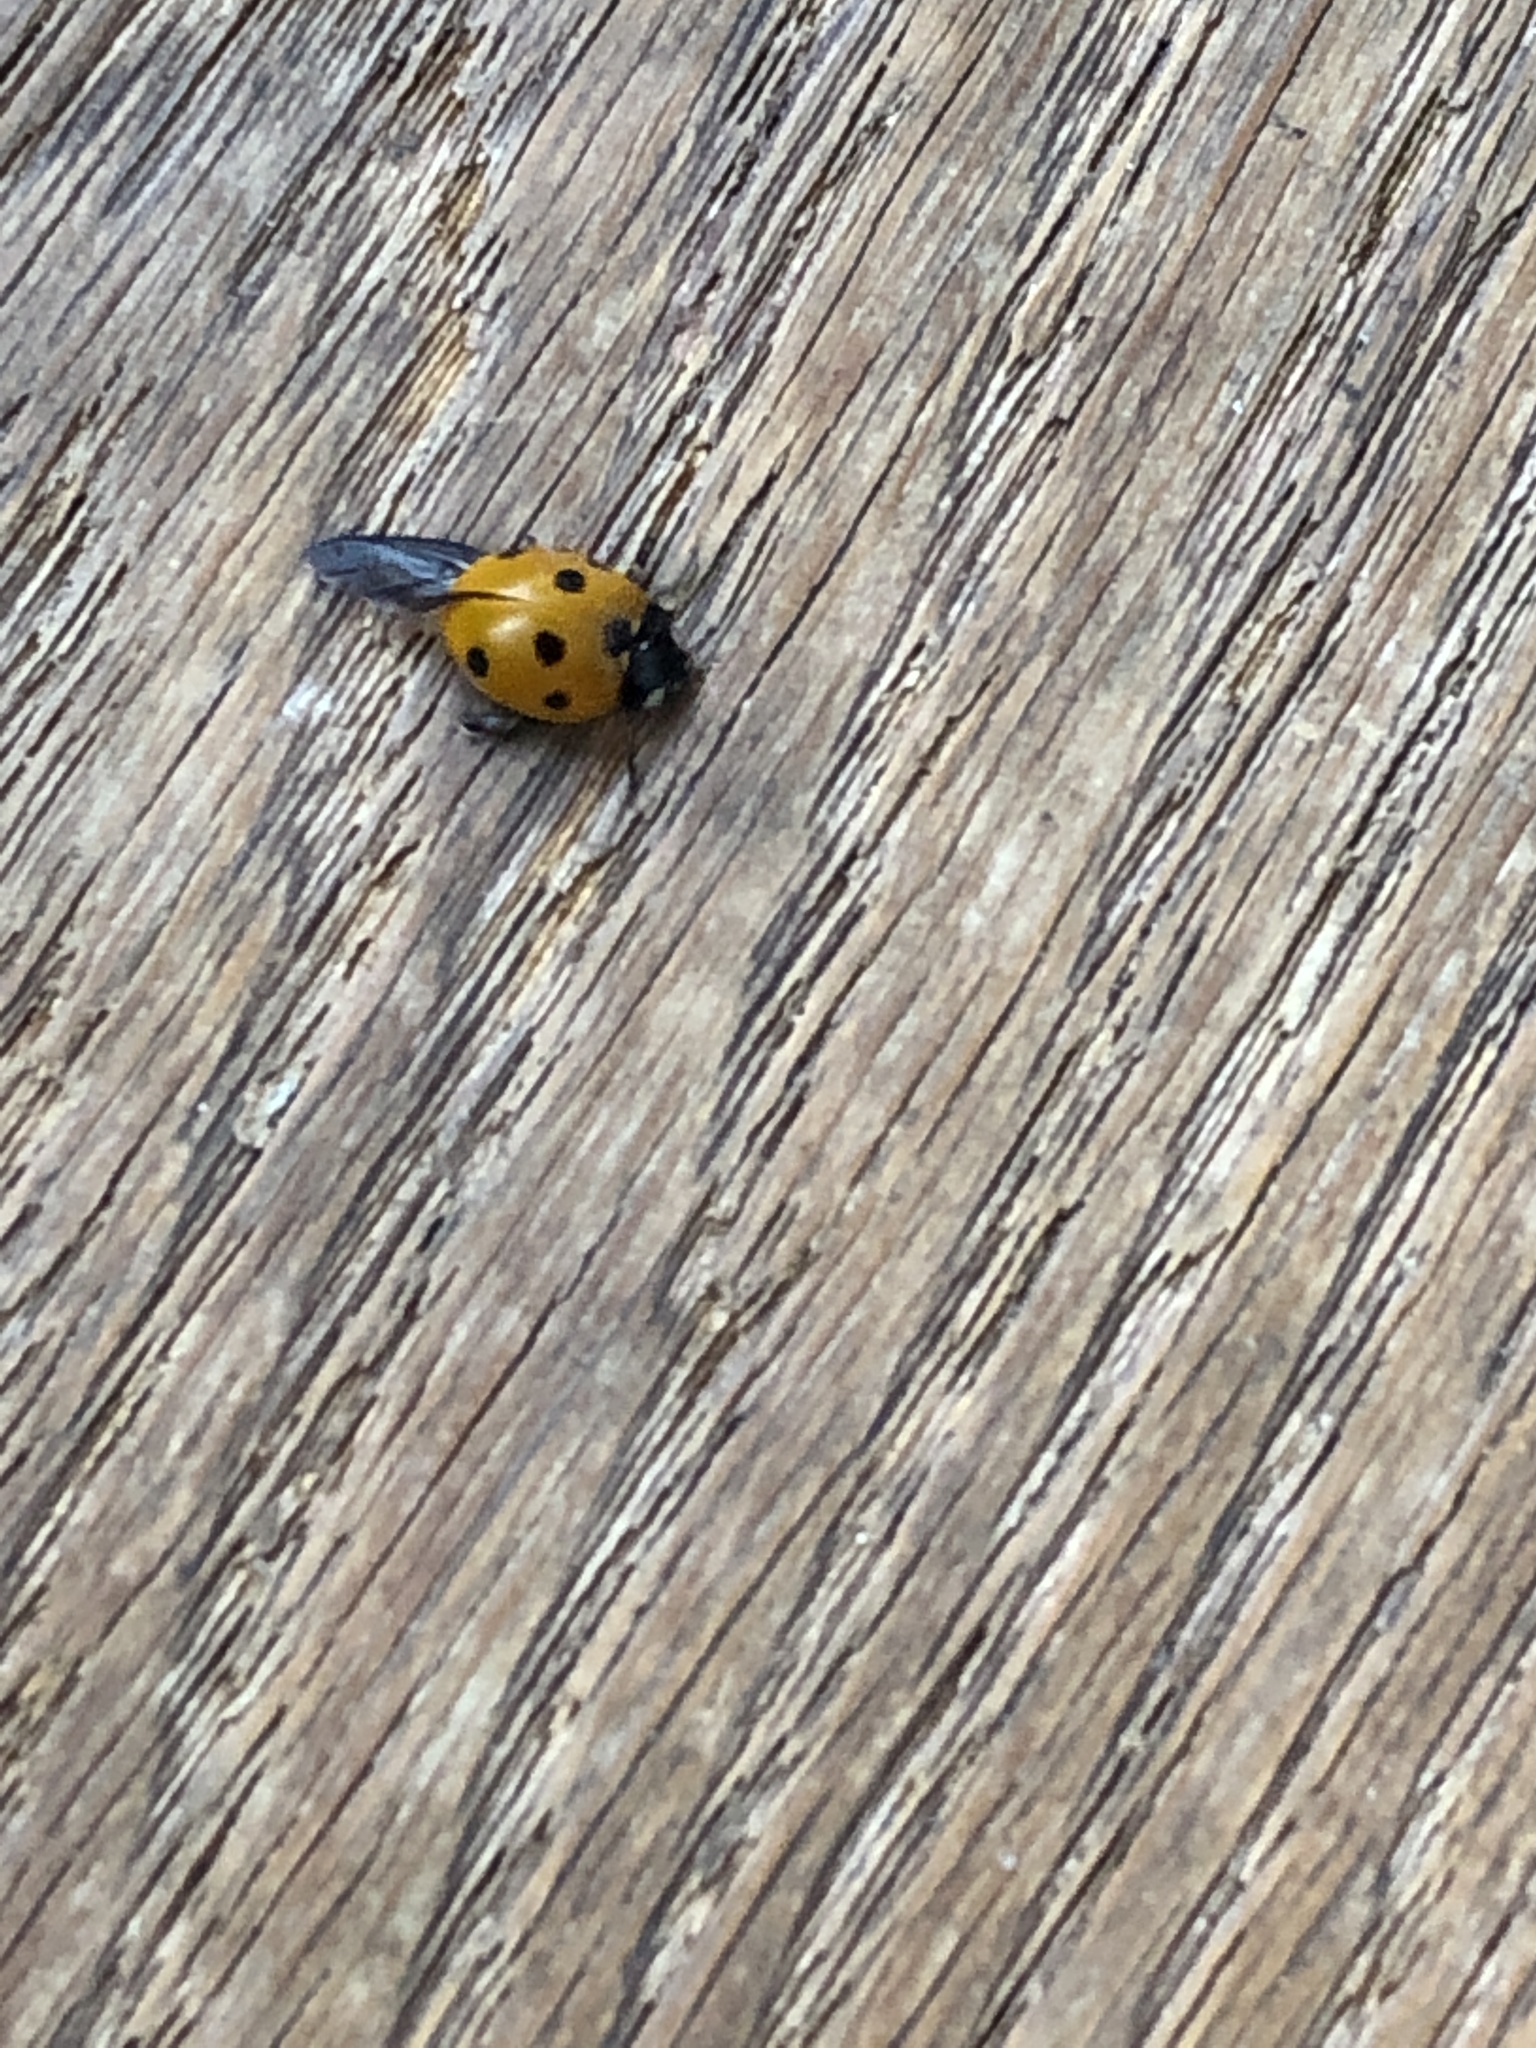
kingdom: Animalia
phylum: Arthropoda
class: Insecta
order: Coleoptera
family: Coccinellidae
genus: Coccinella
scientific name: Coccinella septempunctata
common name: Sevenspotted lady beetle
